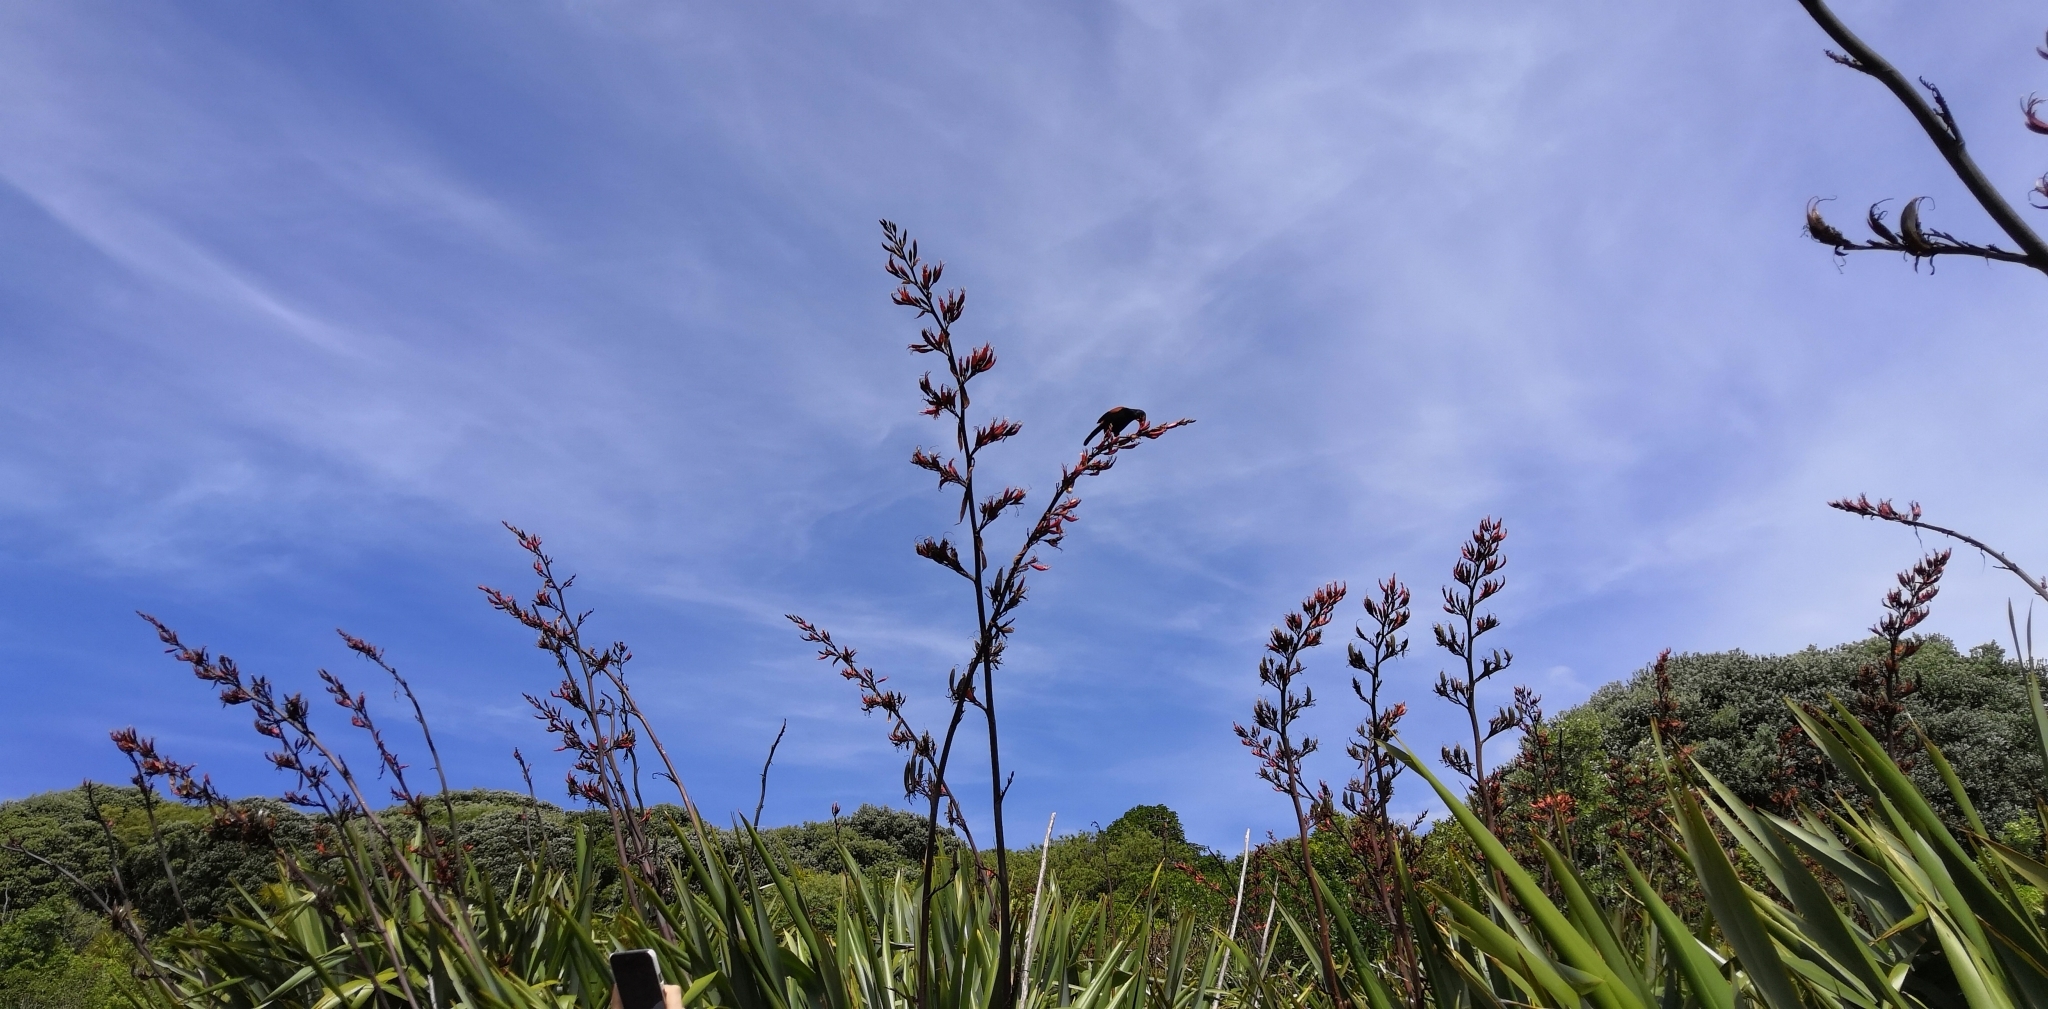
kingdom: Animalia
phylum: Chordata
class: Aves
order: Passeriformes
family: Callaeatidae
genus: Philesturnus
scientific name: Philesturnus carunculatus
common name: South island saddleback
